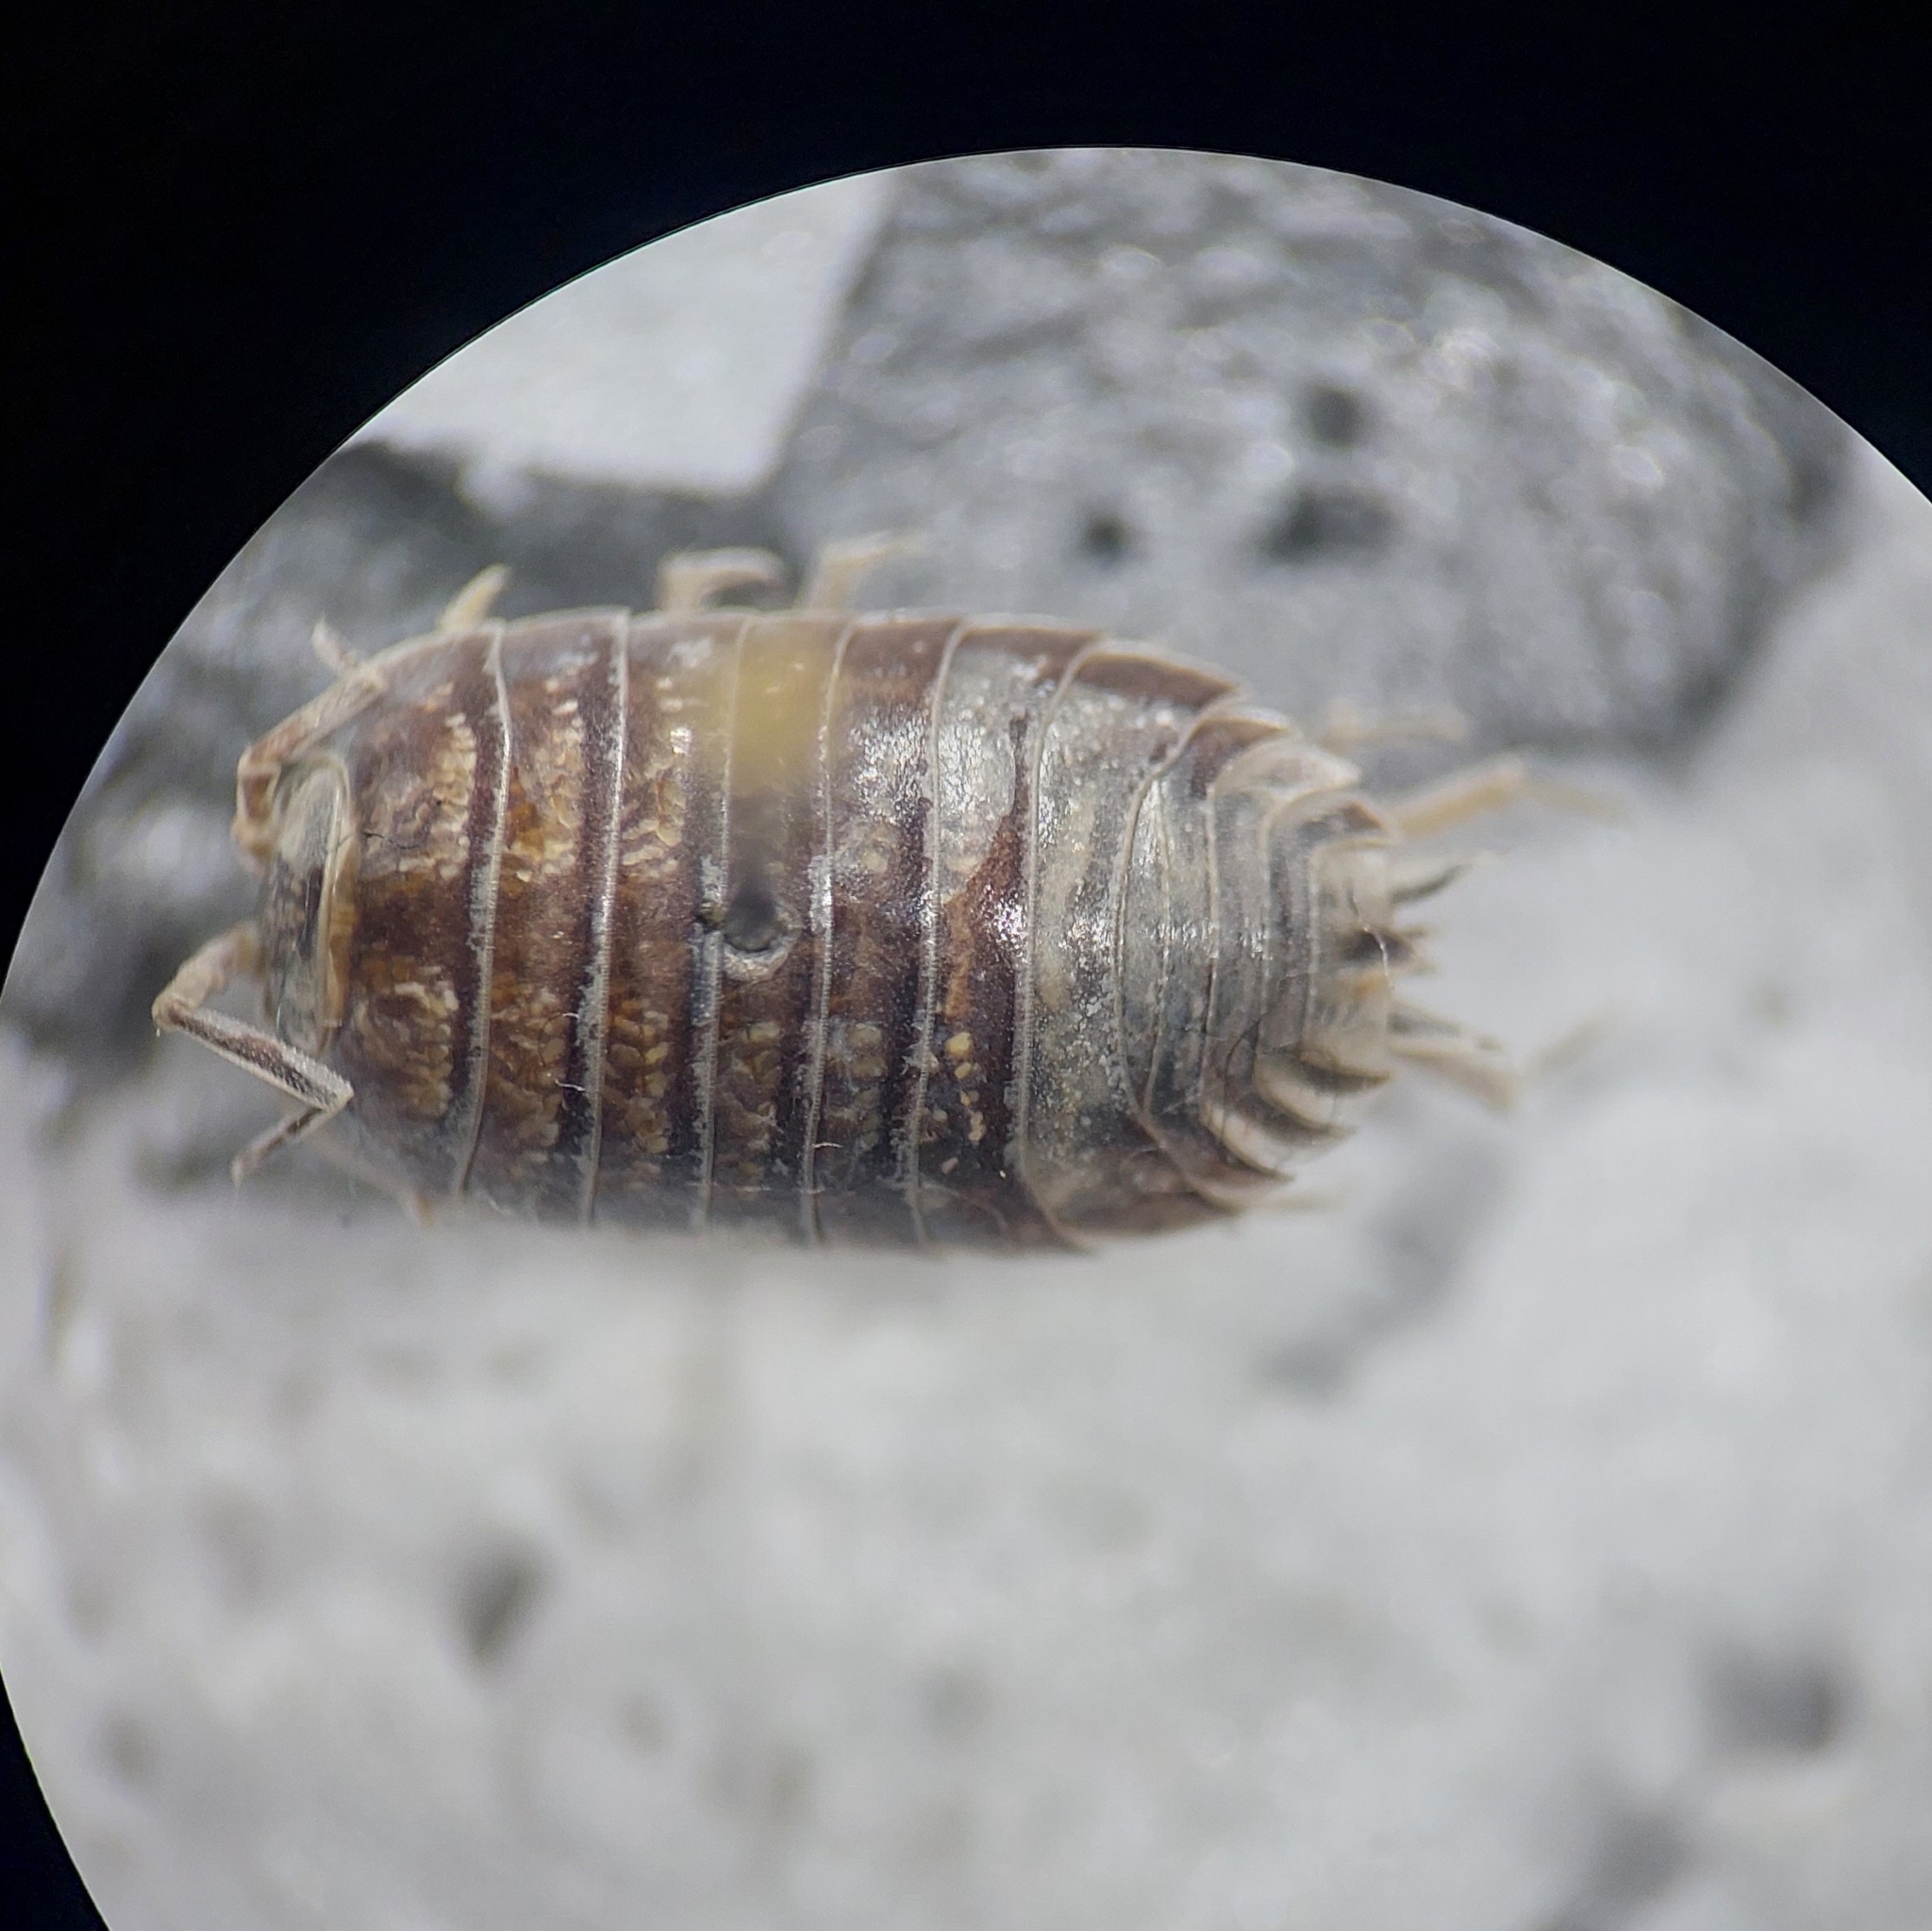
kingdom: Animalia
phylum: Arthropoda
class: Malacostraca
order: Isopoda
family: Porcellionidae
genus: Porcellio
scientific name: Porcellio laevis
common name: Swift woodlouse
